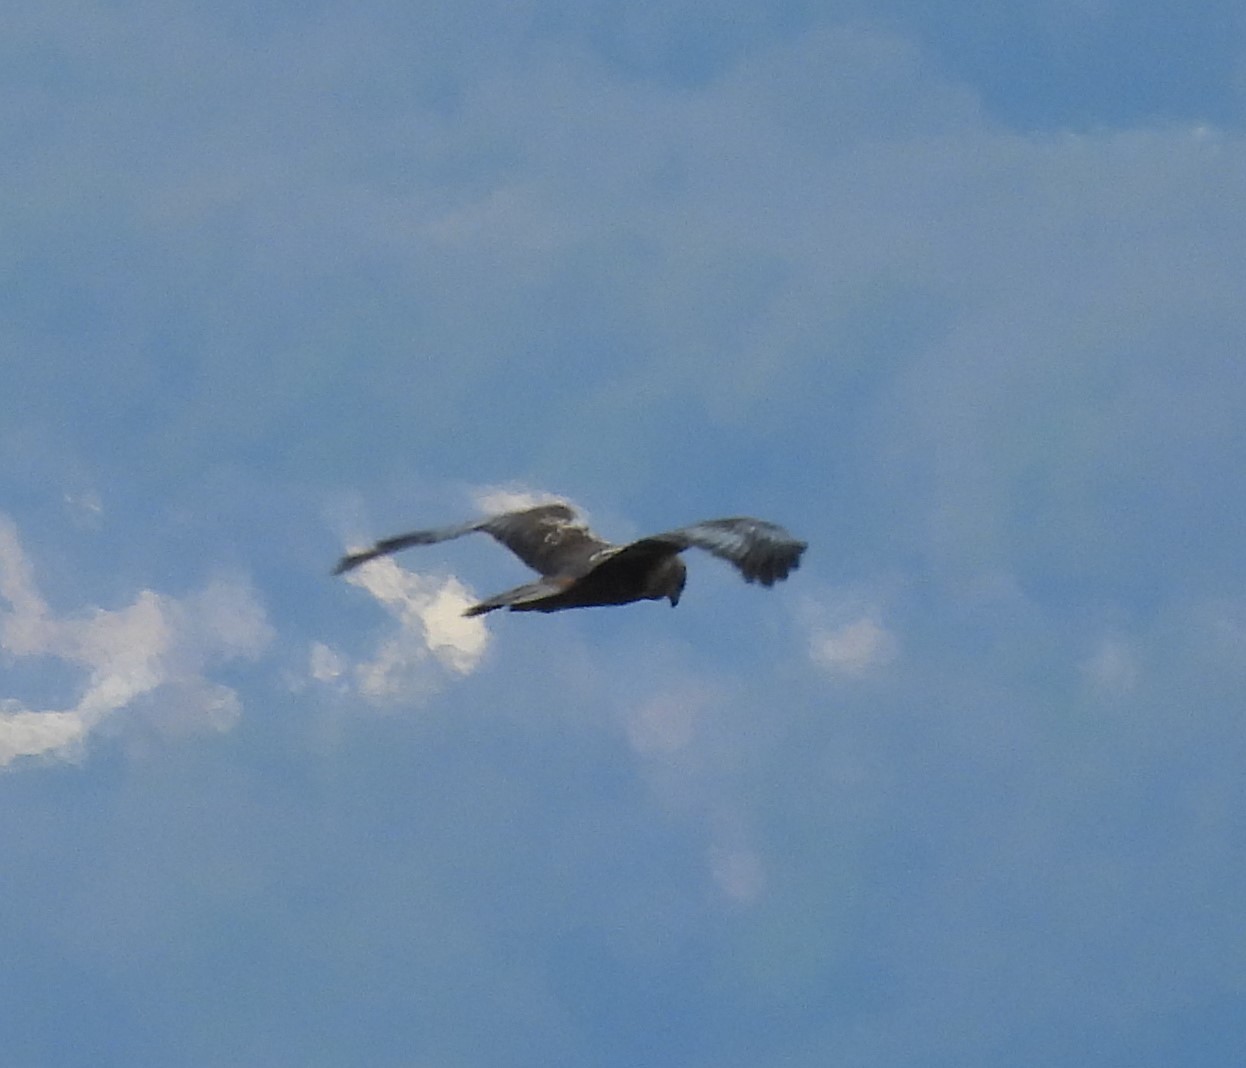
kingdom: Animalia
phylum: Chordata
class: Aves
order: Accipitriformes
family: Accipitridae
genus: Circus
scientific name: Circus aeruginosus
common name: Western marsh harrier
